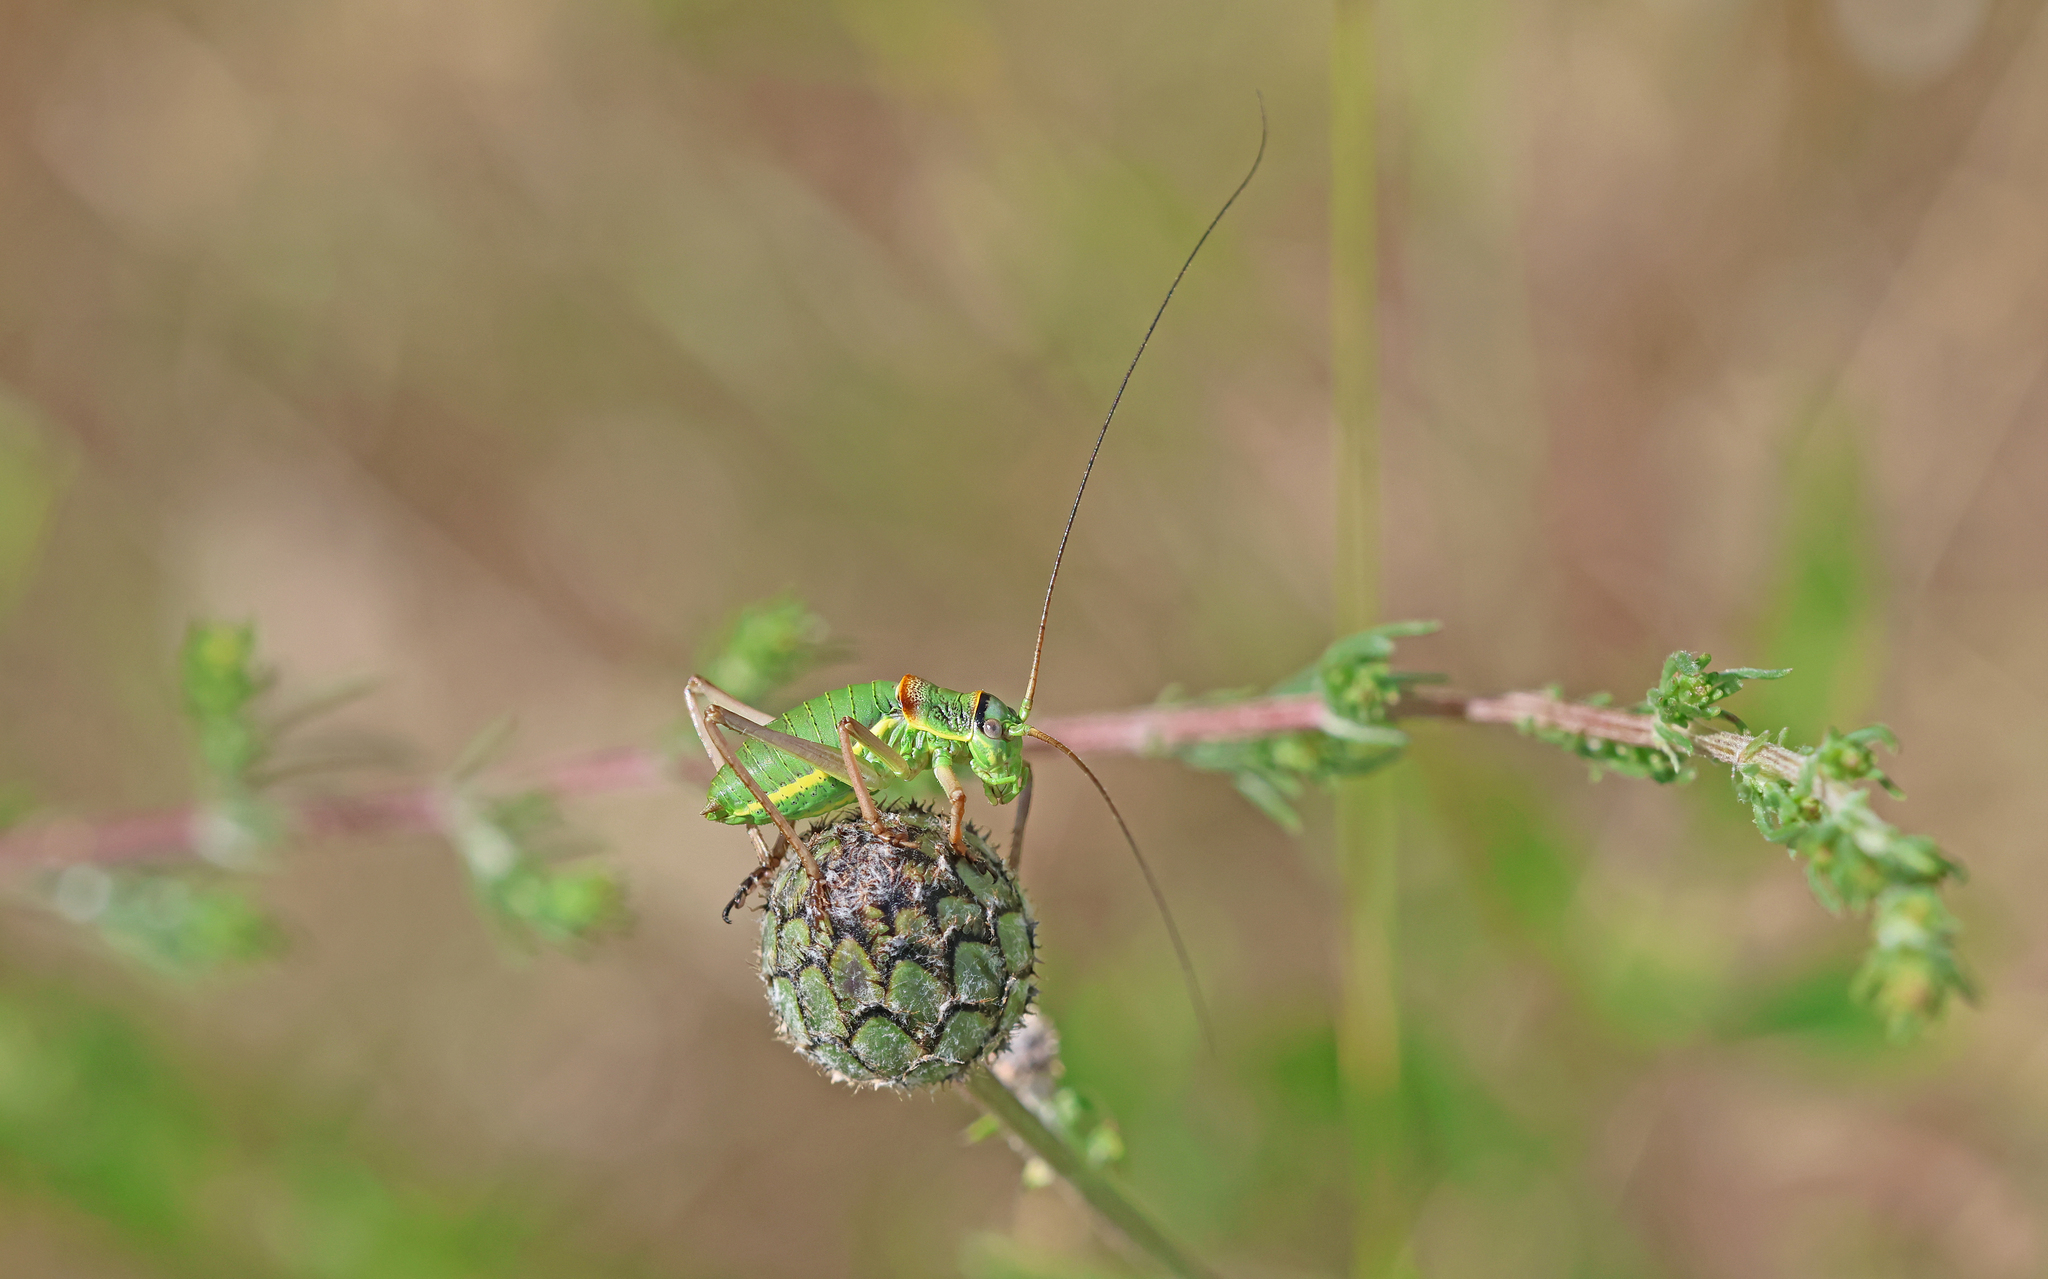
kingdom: Animalia
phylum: Arthropoda
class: Insecta
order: Orthoptera
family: Tettigoniidae
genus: Ephippiger
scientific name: Ephippiger ephippiger
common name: Eastern saddle bush-cricket
